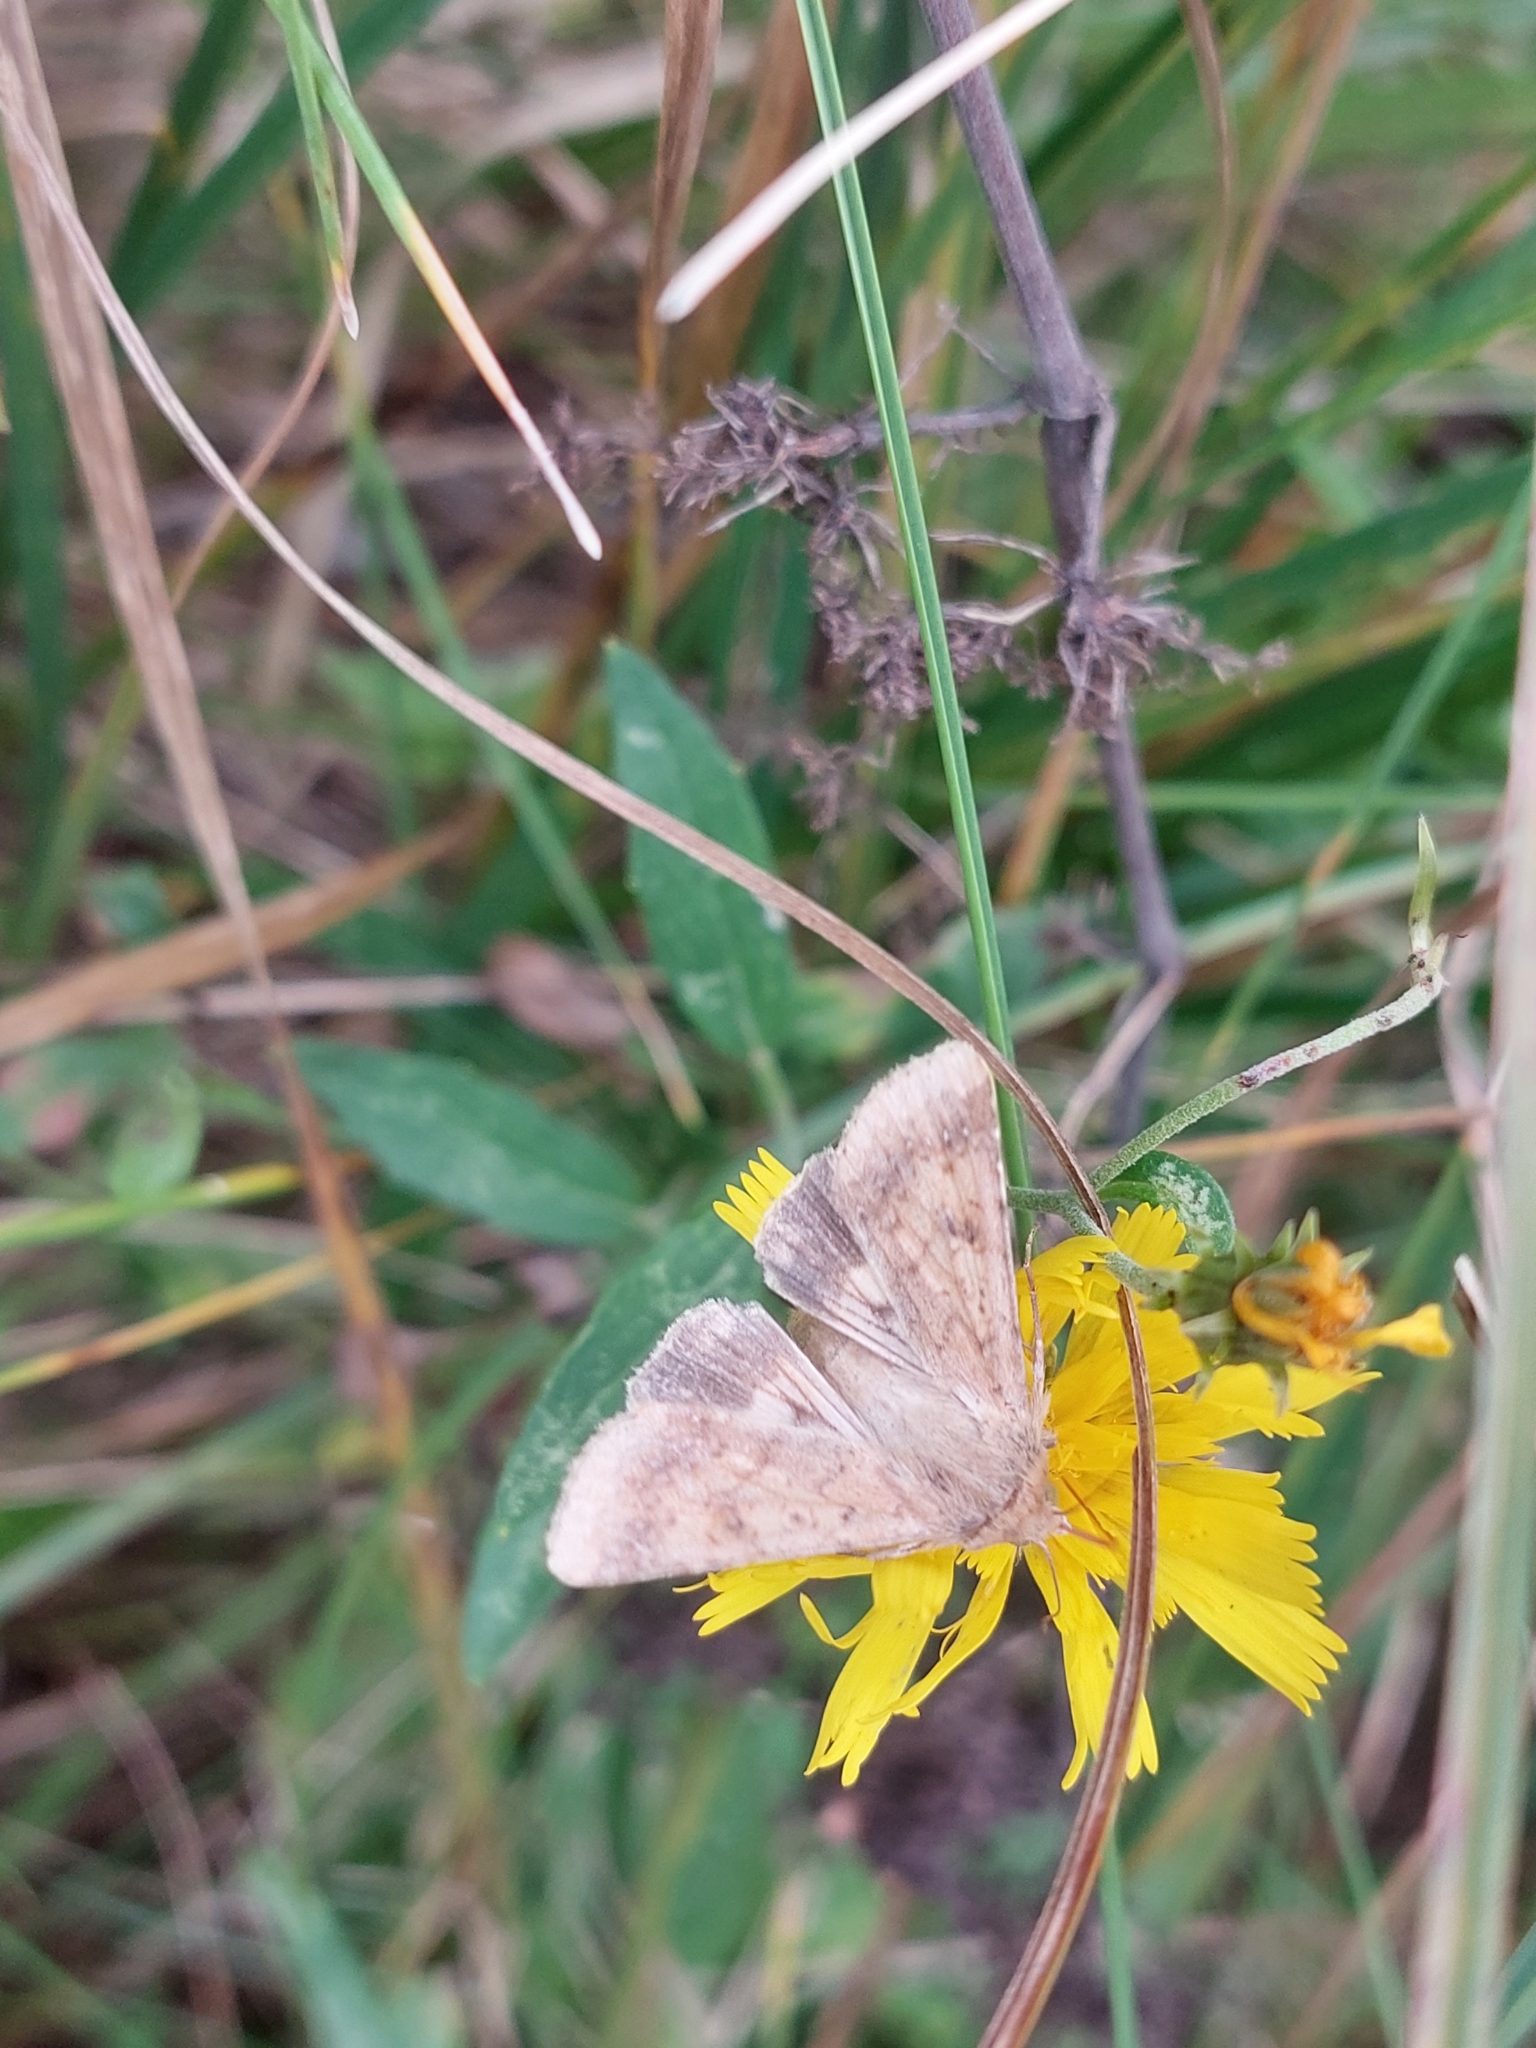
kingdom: Animalia
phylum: Arthropoda
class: Insecta
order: Lepidoptera
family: Noctuidae
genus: Helicoverpa
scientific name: Helicoverpa armigera
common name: Cotton bollworm
